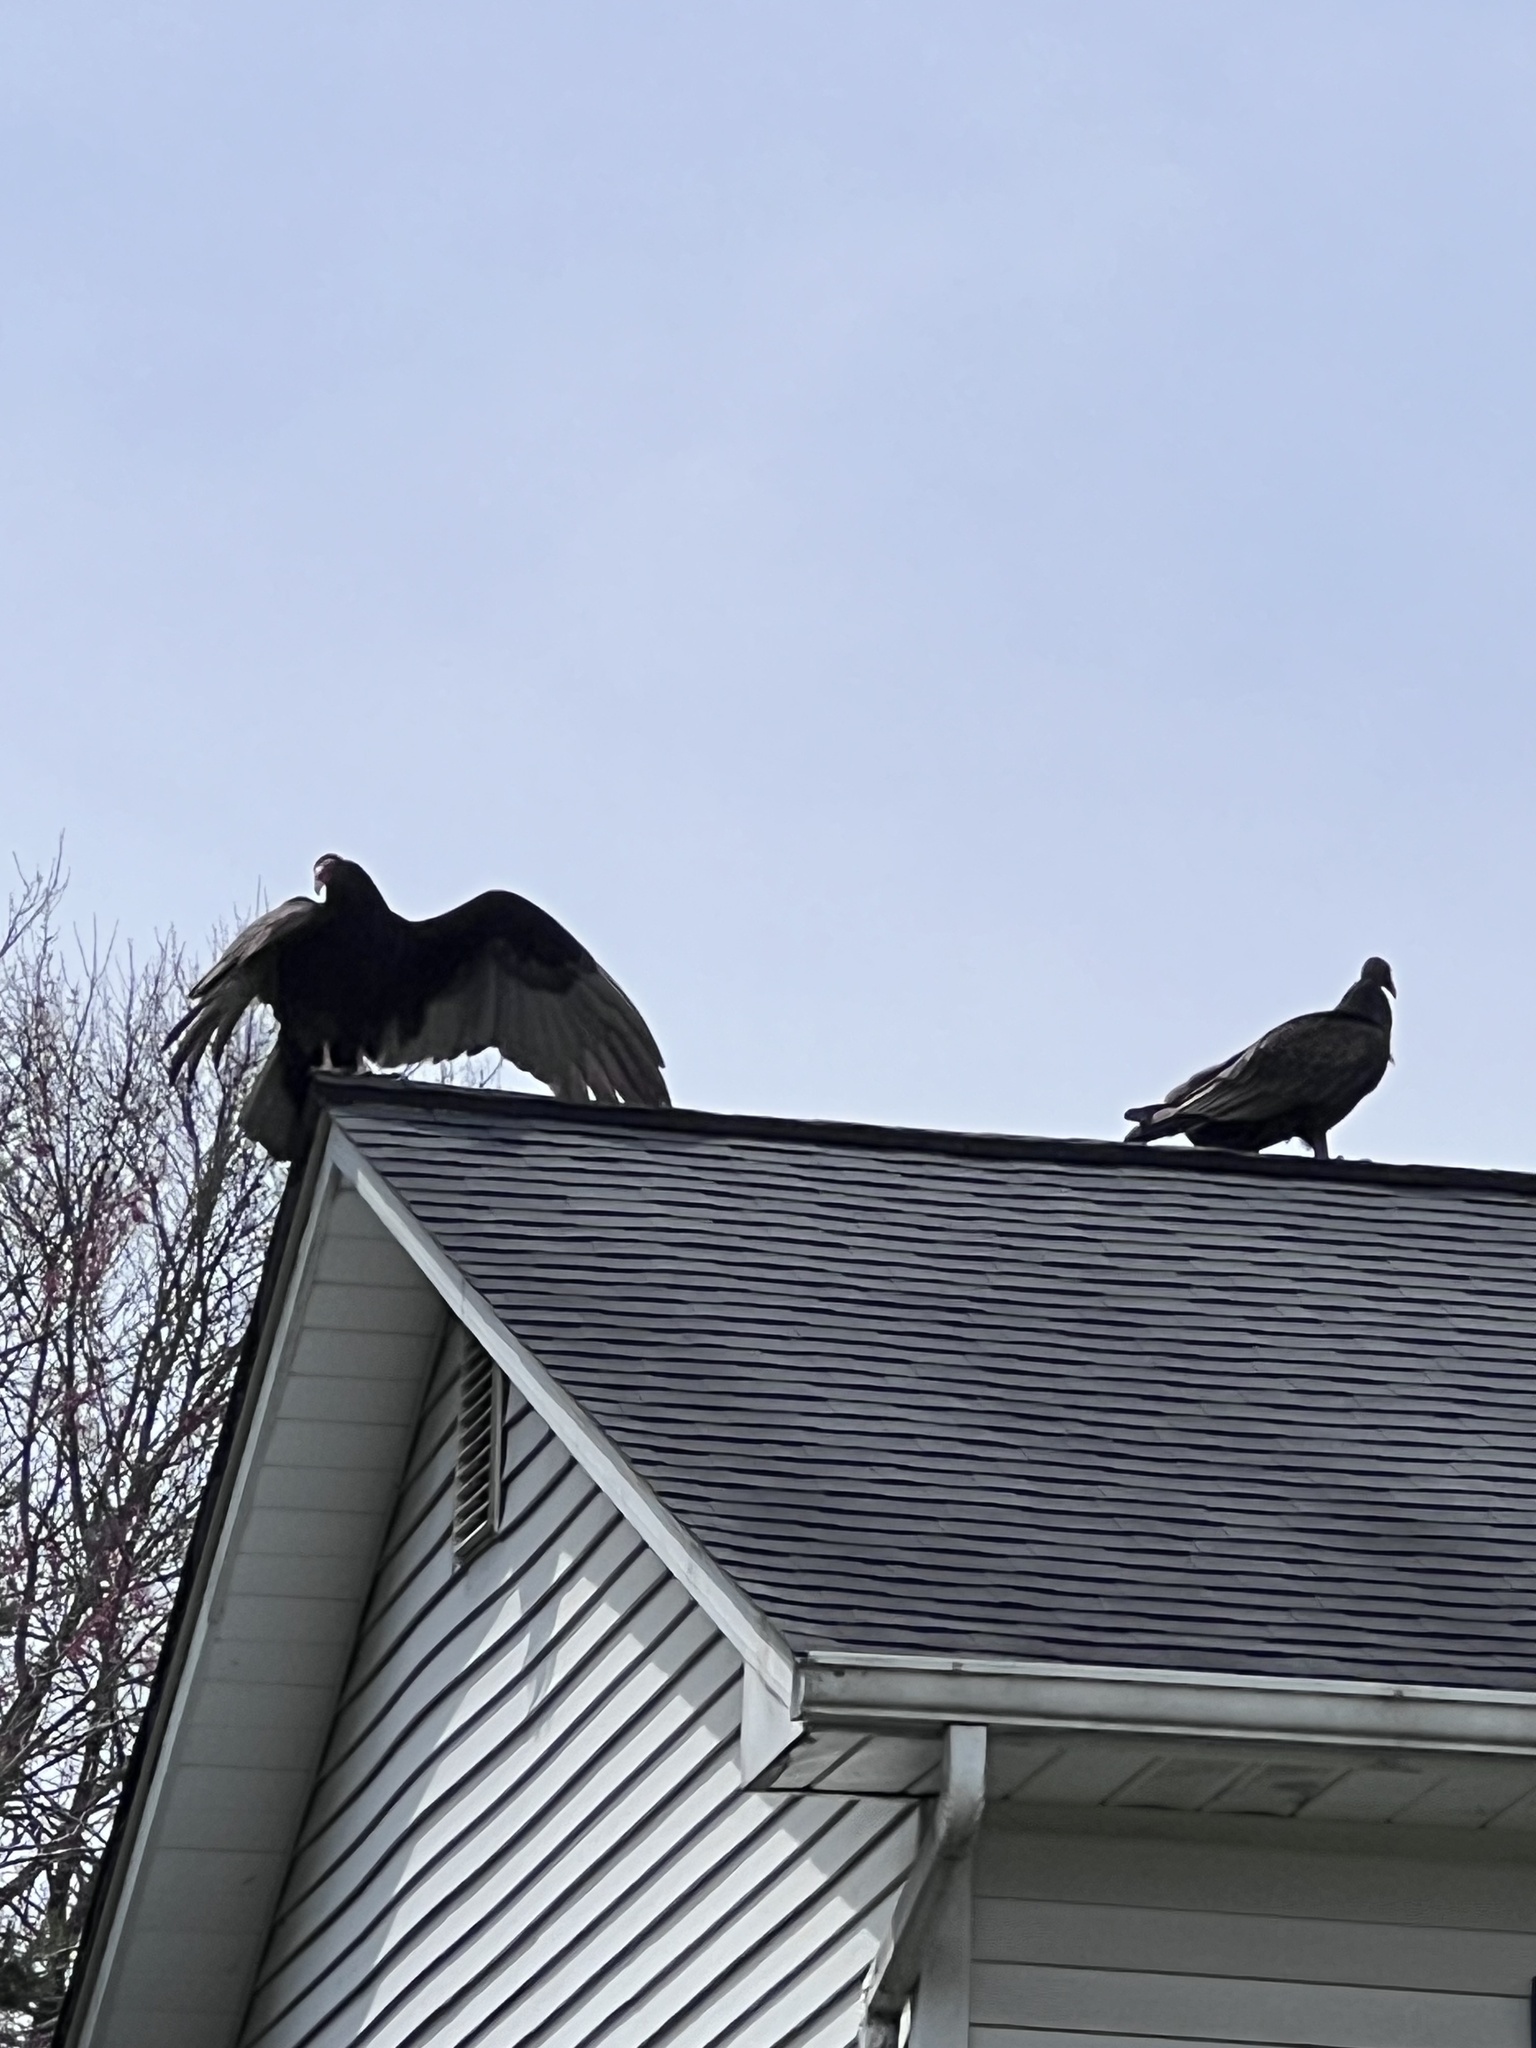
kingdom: Animalia
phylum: Chordata
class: Aves
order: Accipitriformes
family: Cathartidae
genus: Cathartes
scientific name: Cathartes aura
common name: Turkey vulture
